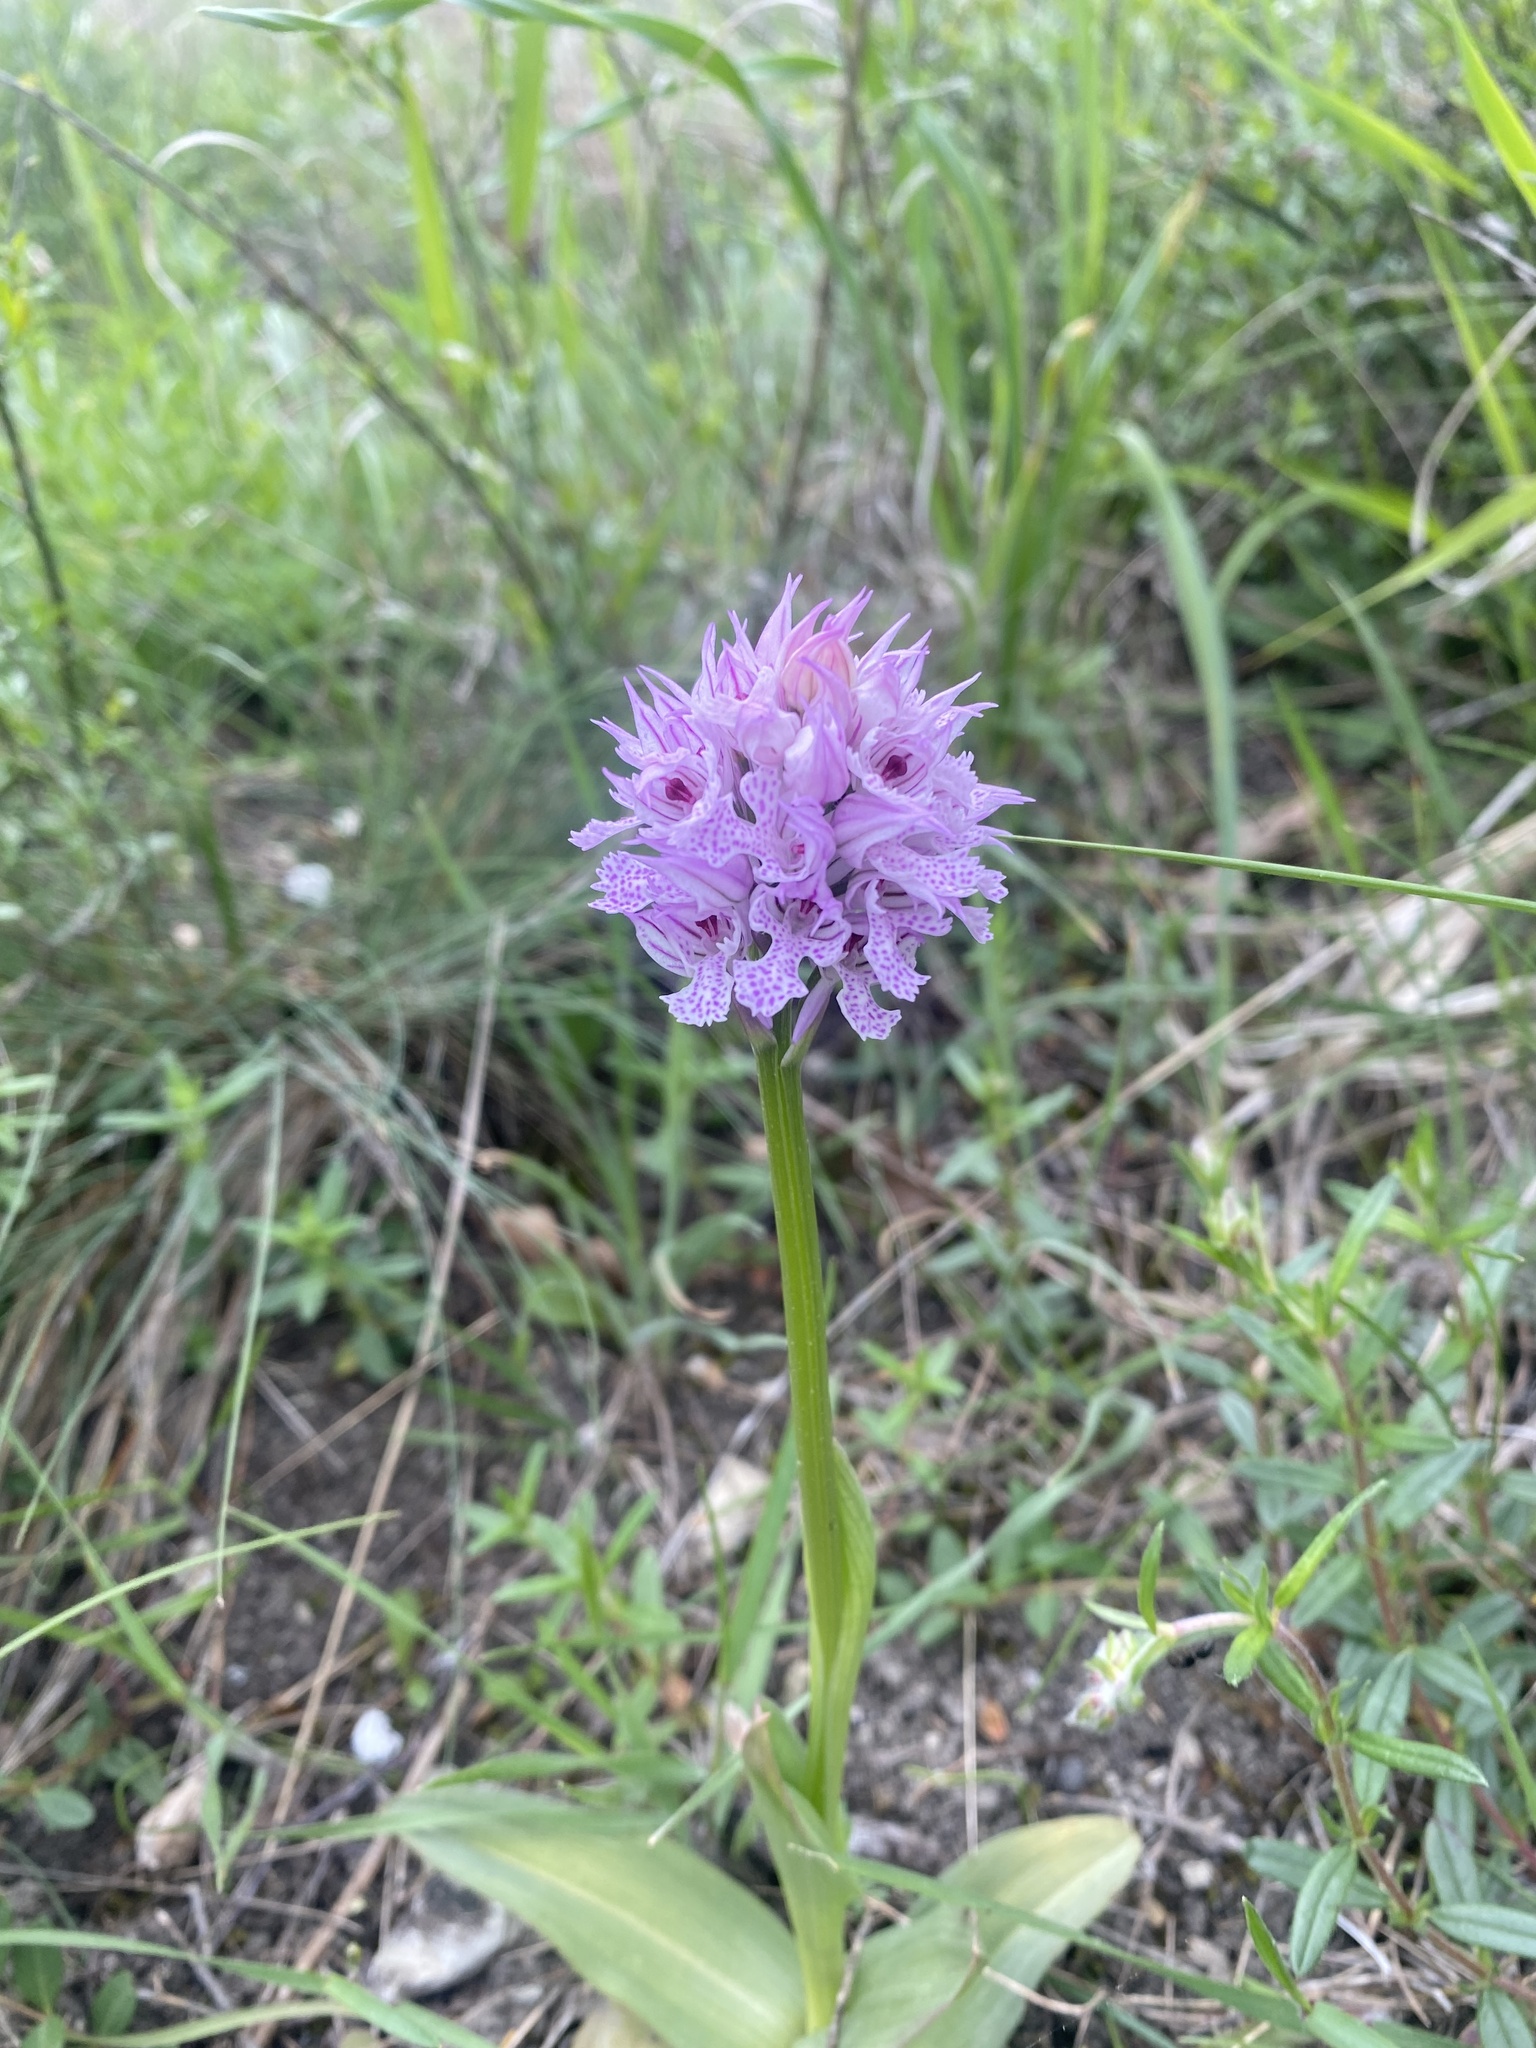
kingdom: Plantae
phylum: Tracheophyta
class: Liliopsida
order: Asparagales
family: Orchidaceae
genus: Neotinea
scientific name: Neotinea tridentata
